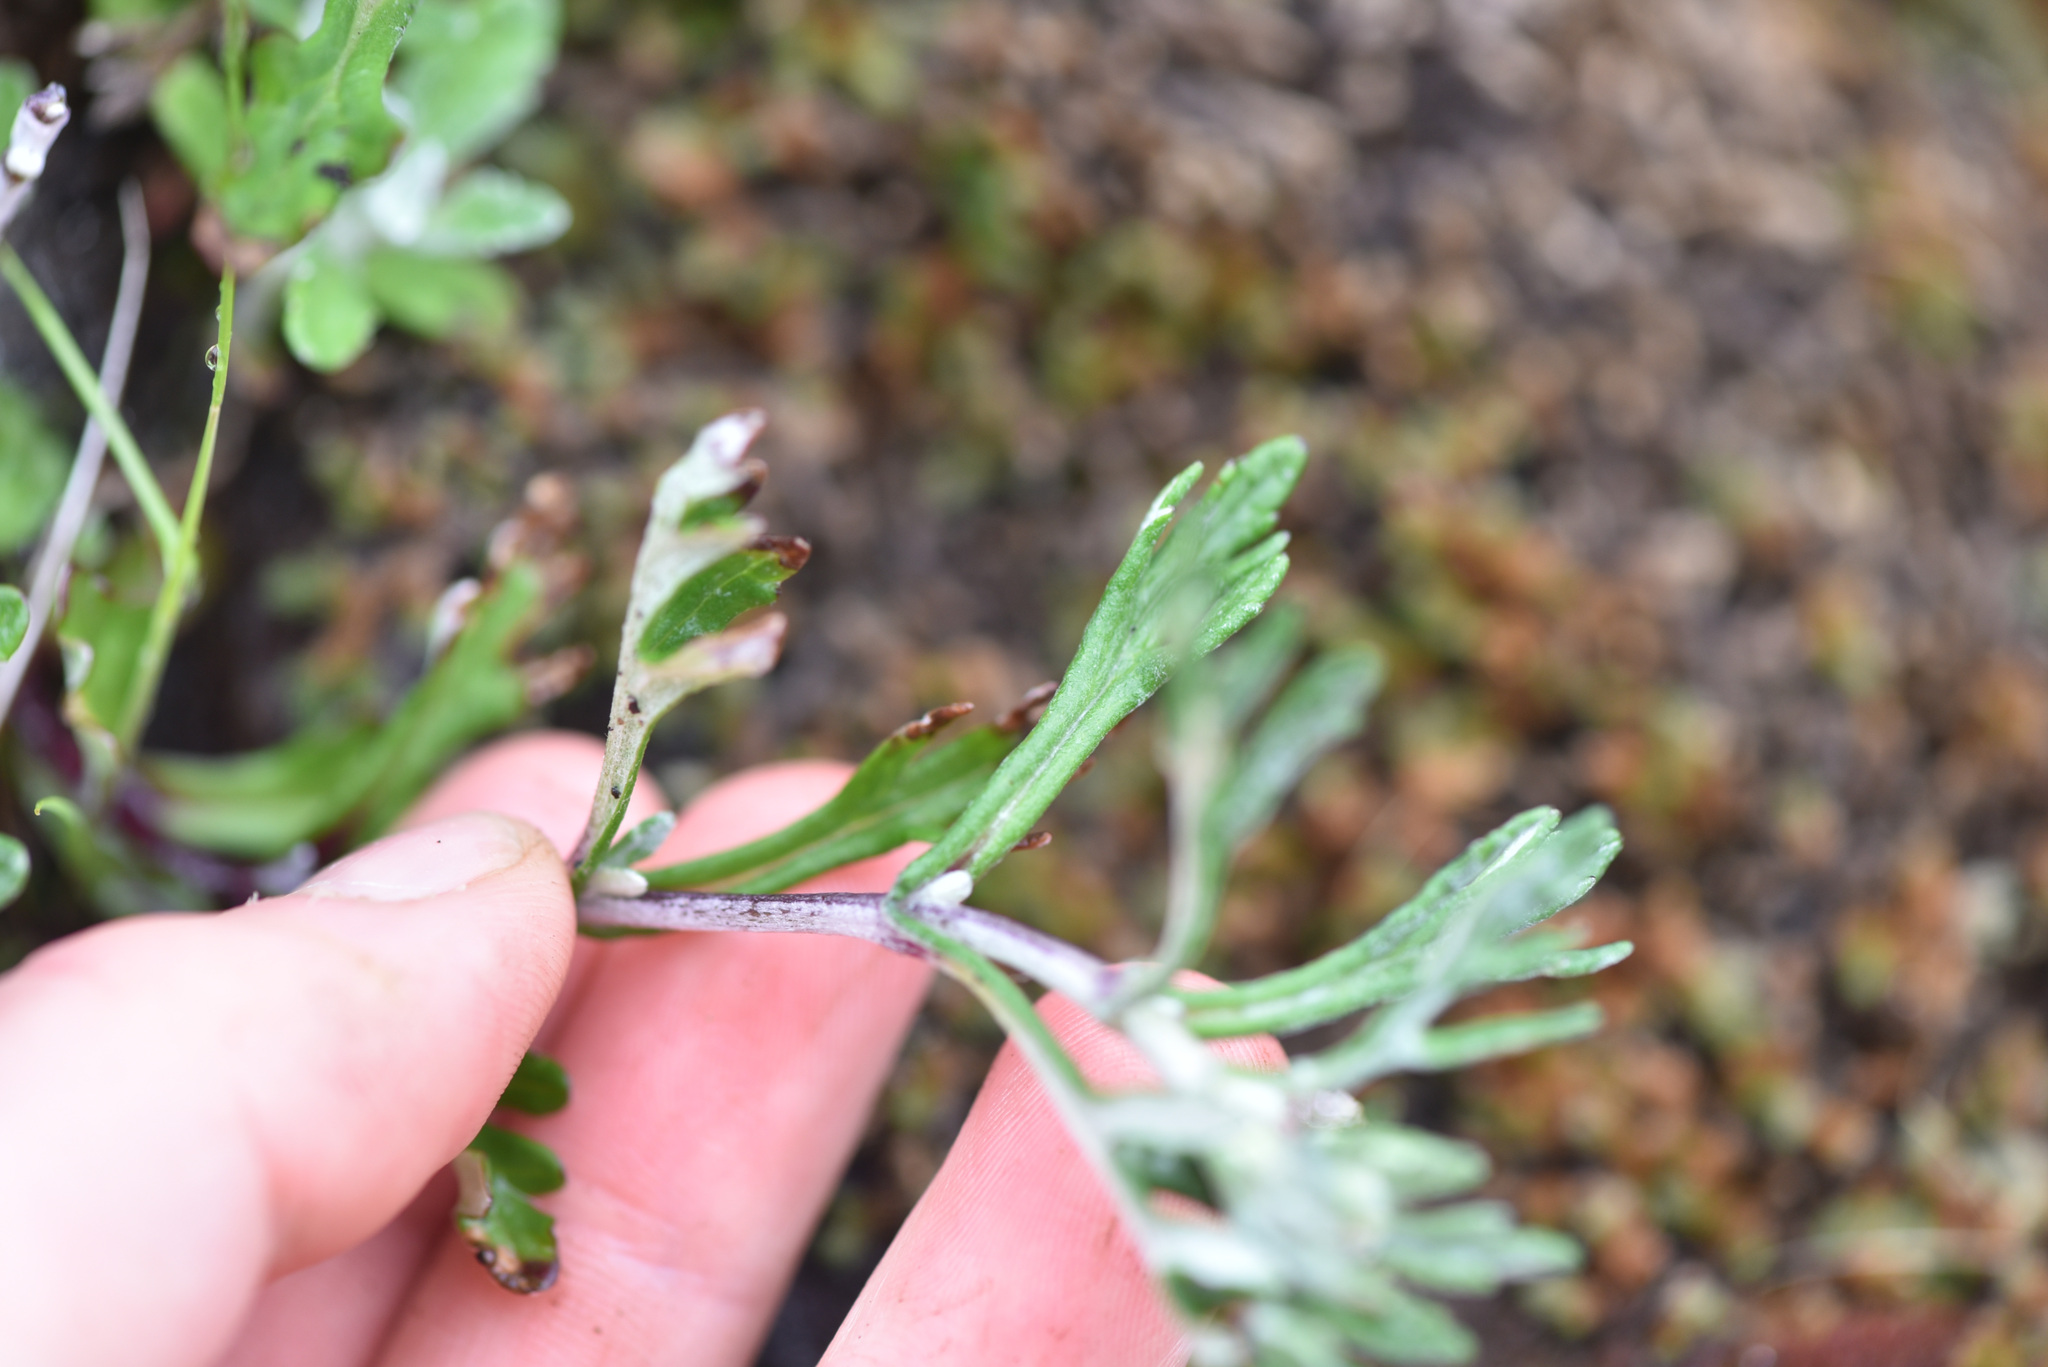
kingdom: Plantae
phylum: Tracheophyta
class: Magnoliopsida
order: Asterales
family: Asteraceae
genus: Eriophyllum
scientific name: Eriophyllum lanatum
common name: Common woolly-sunflower
